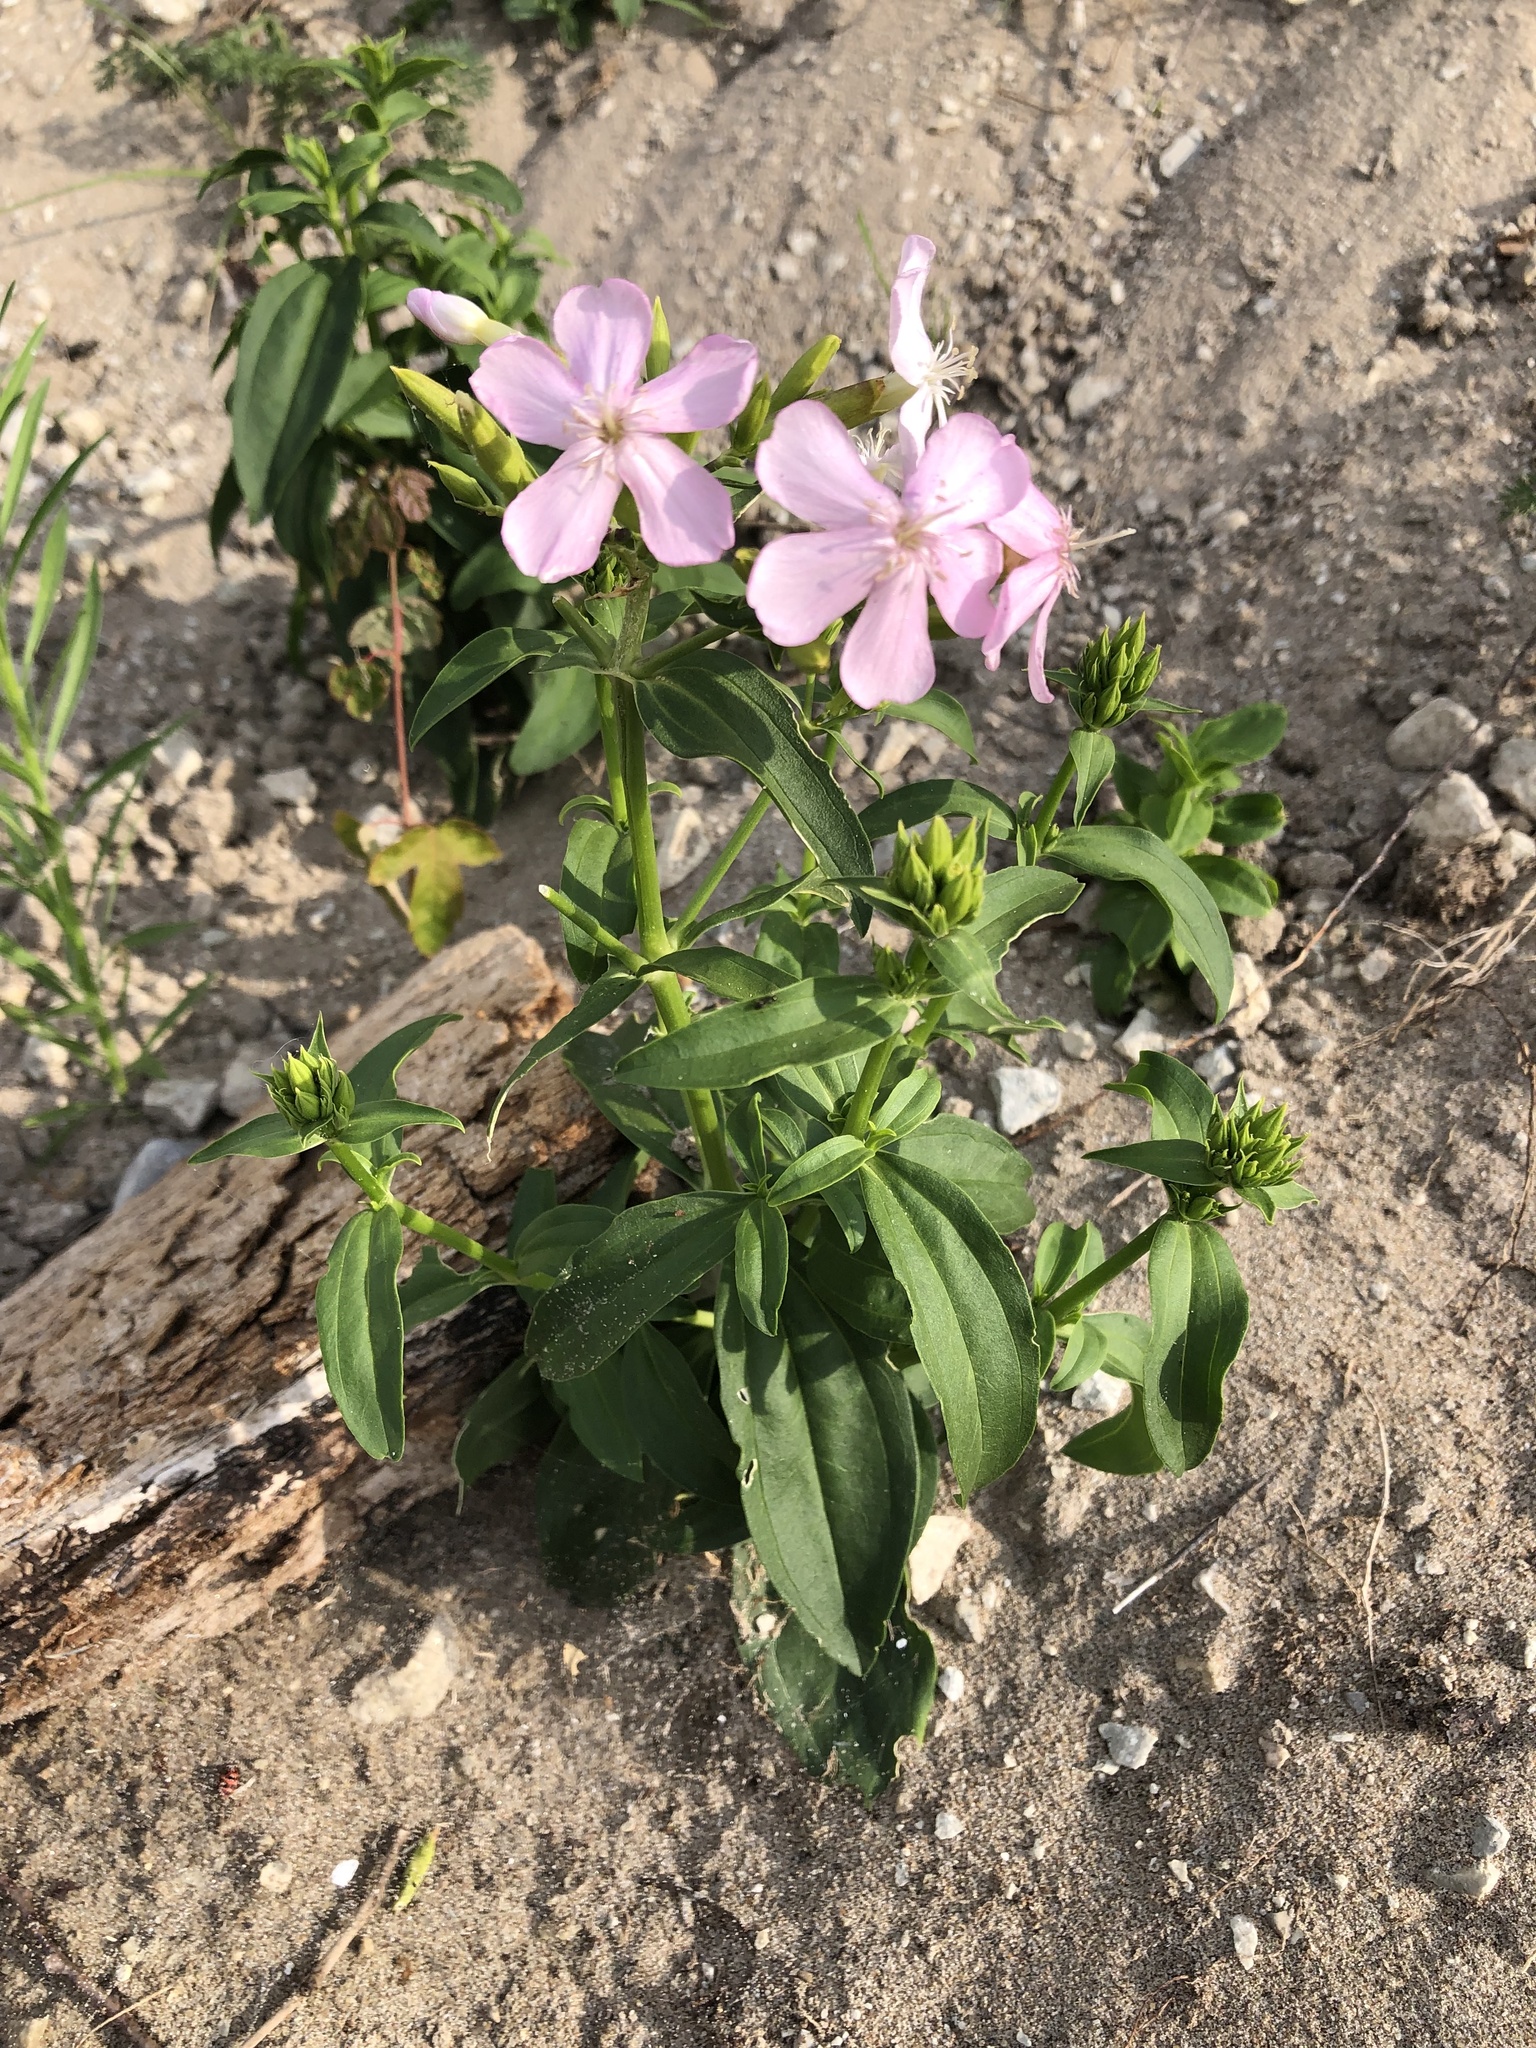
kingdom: Plantae
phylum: Tracheophyta
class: Magnoliopsida
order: Caryophyllales
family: Caryophyllaceae
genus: Saponaria
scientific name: Saponaria officinalis
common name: Soapwort
